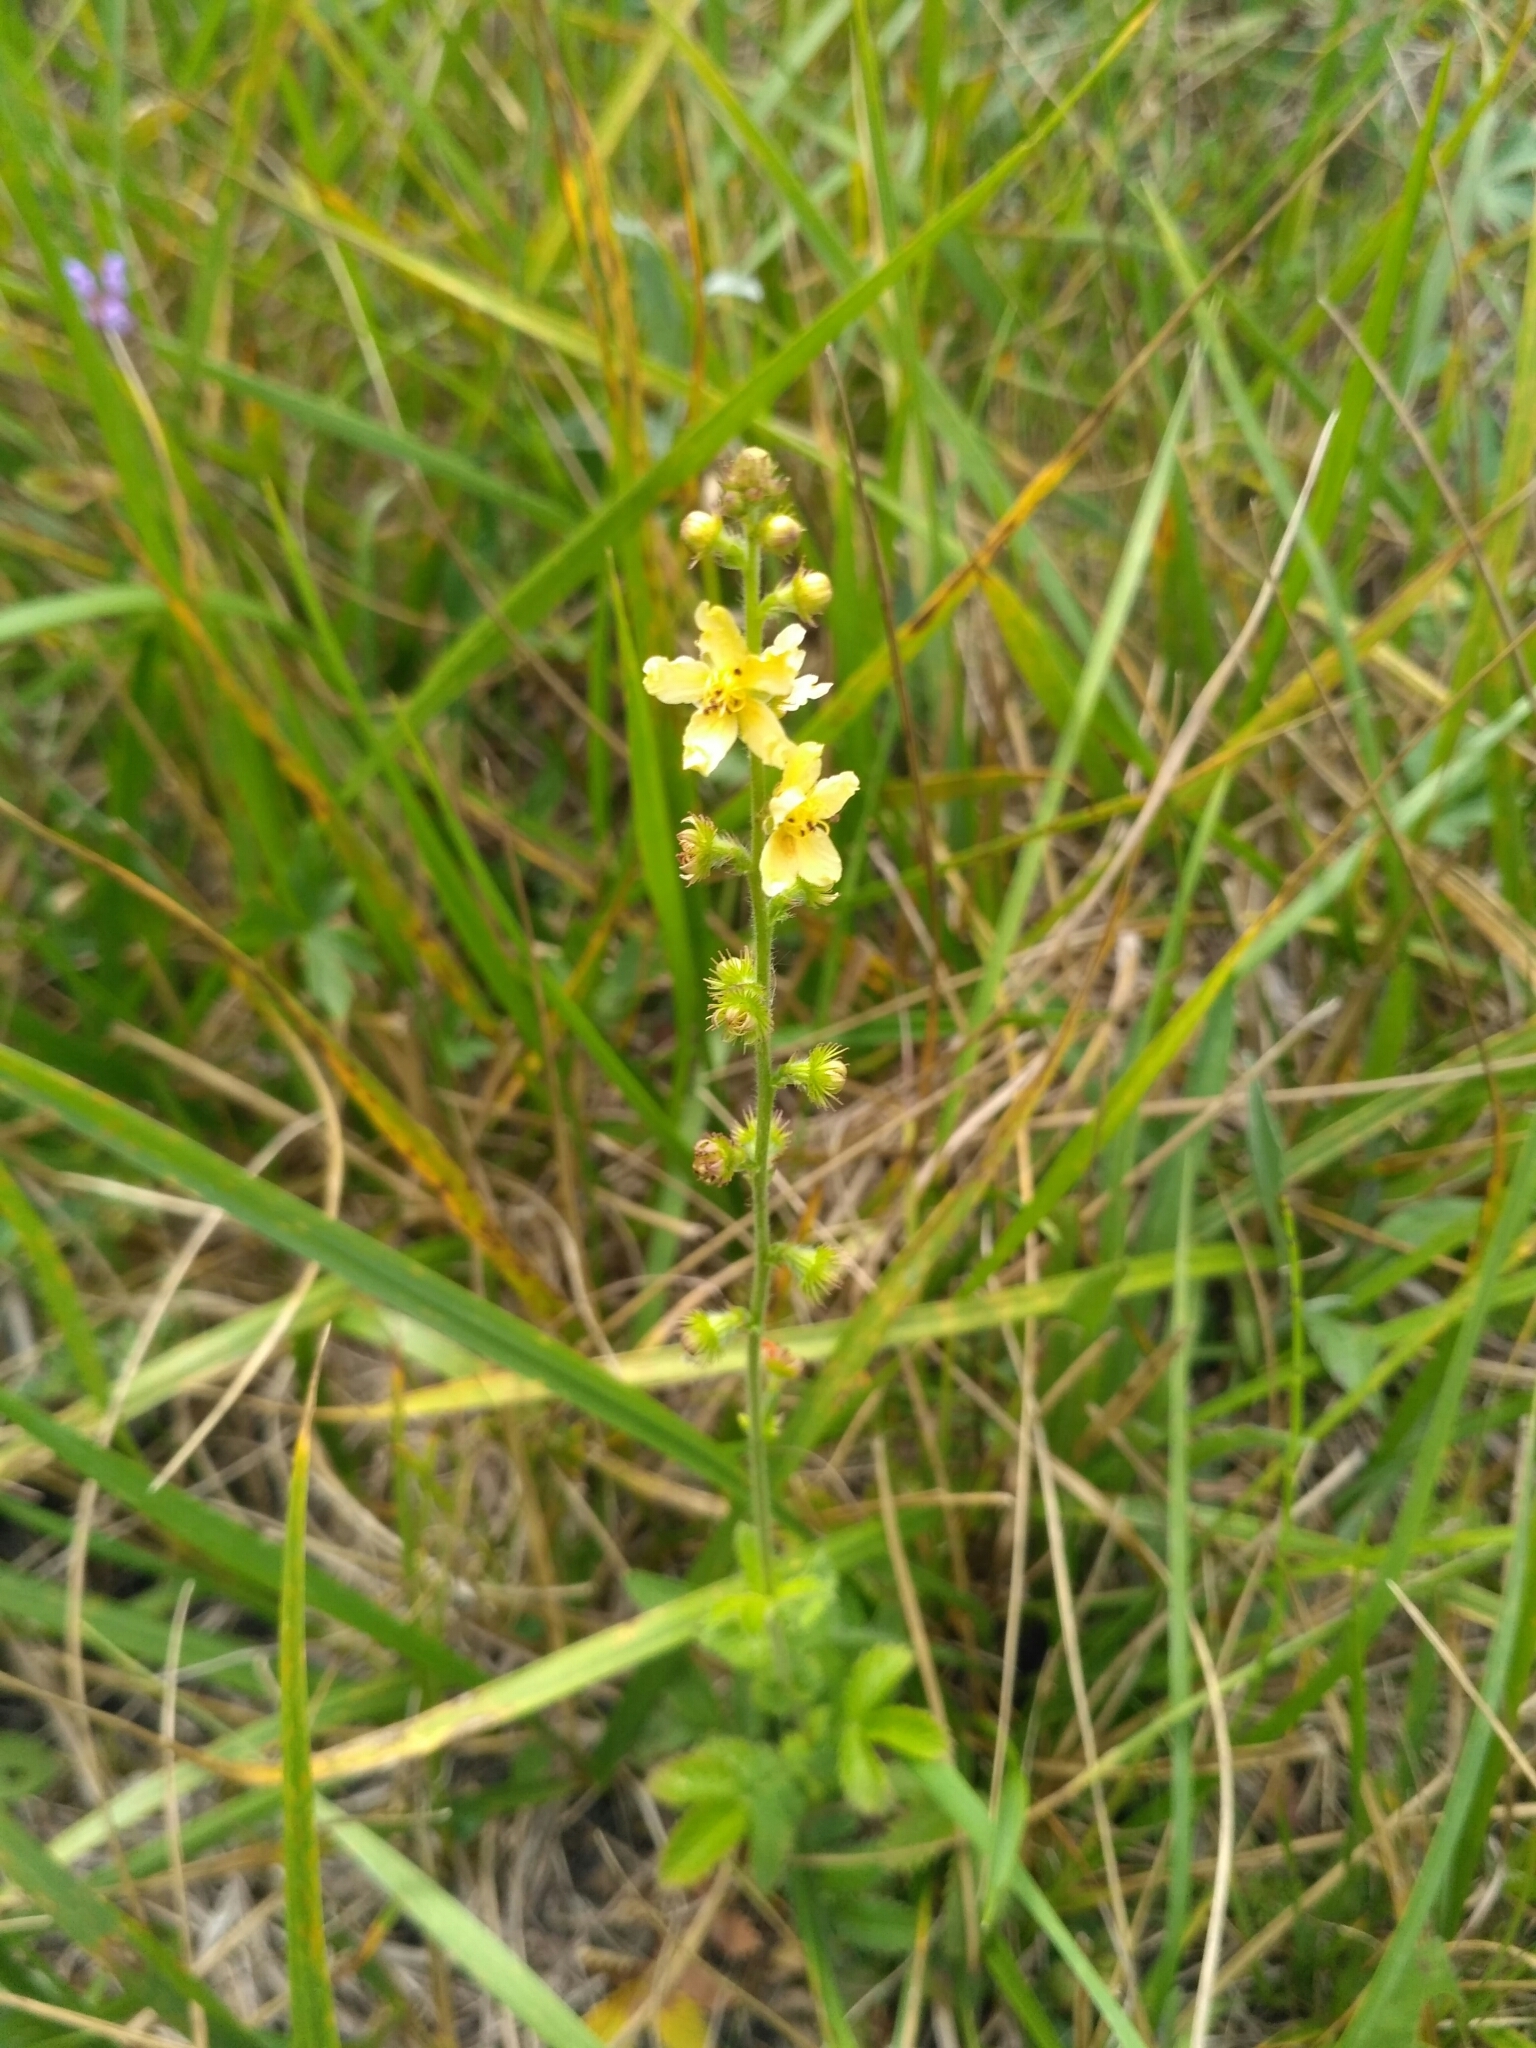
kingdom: Plantae
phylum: Tracheophyta
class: Magnoliopsida
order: Rosales
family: Rosaceae
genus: Agrimonia
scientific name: Agrimonia eupatoria
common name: Agrimony
